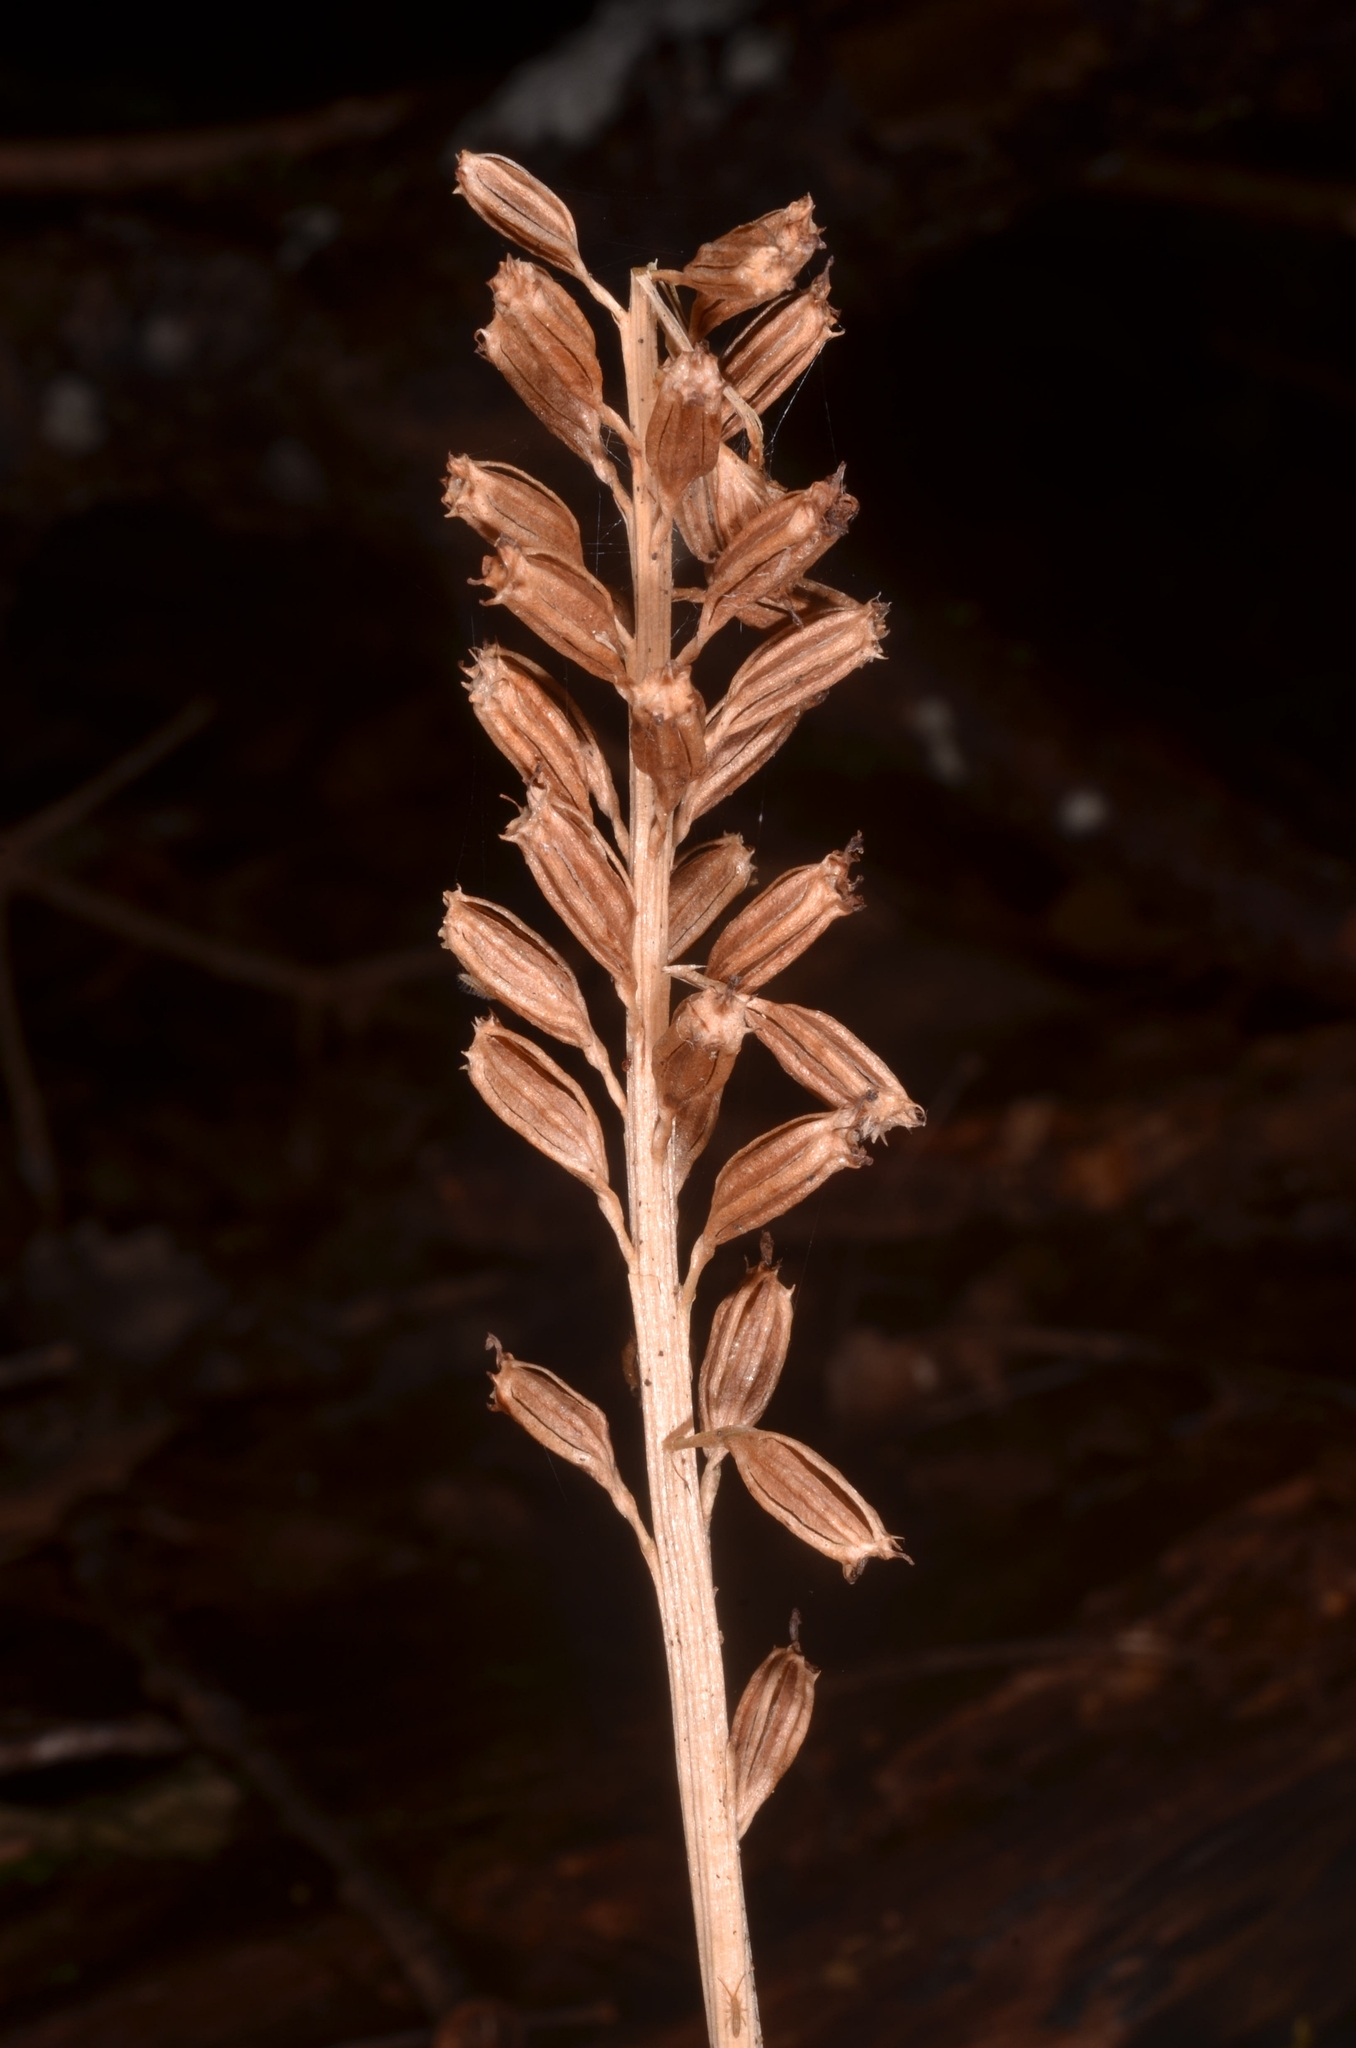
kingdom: Plantae
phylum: Tracheophyta
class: Liliopsida
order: Asparagales
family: Orchidaceae
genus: Neottia
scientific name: Neottia nidus-avis
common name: Bird's-nest orchid
